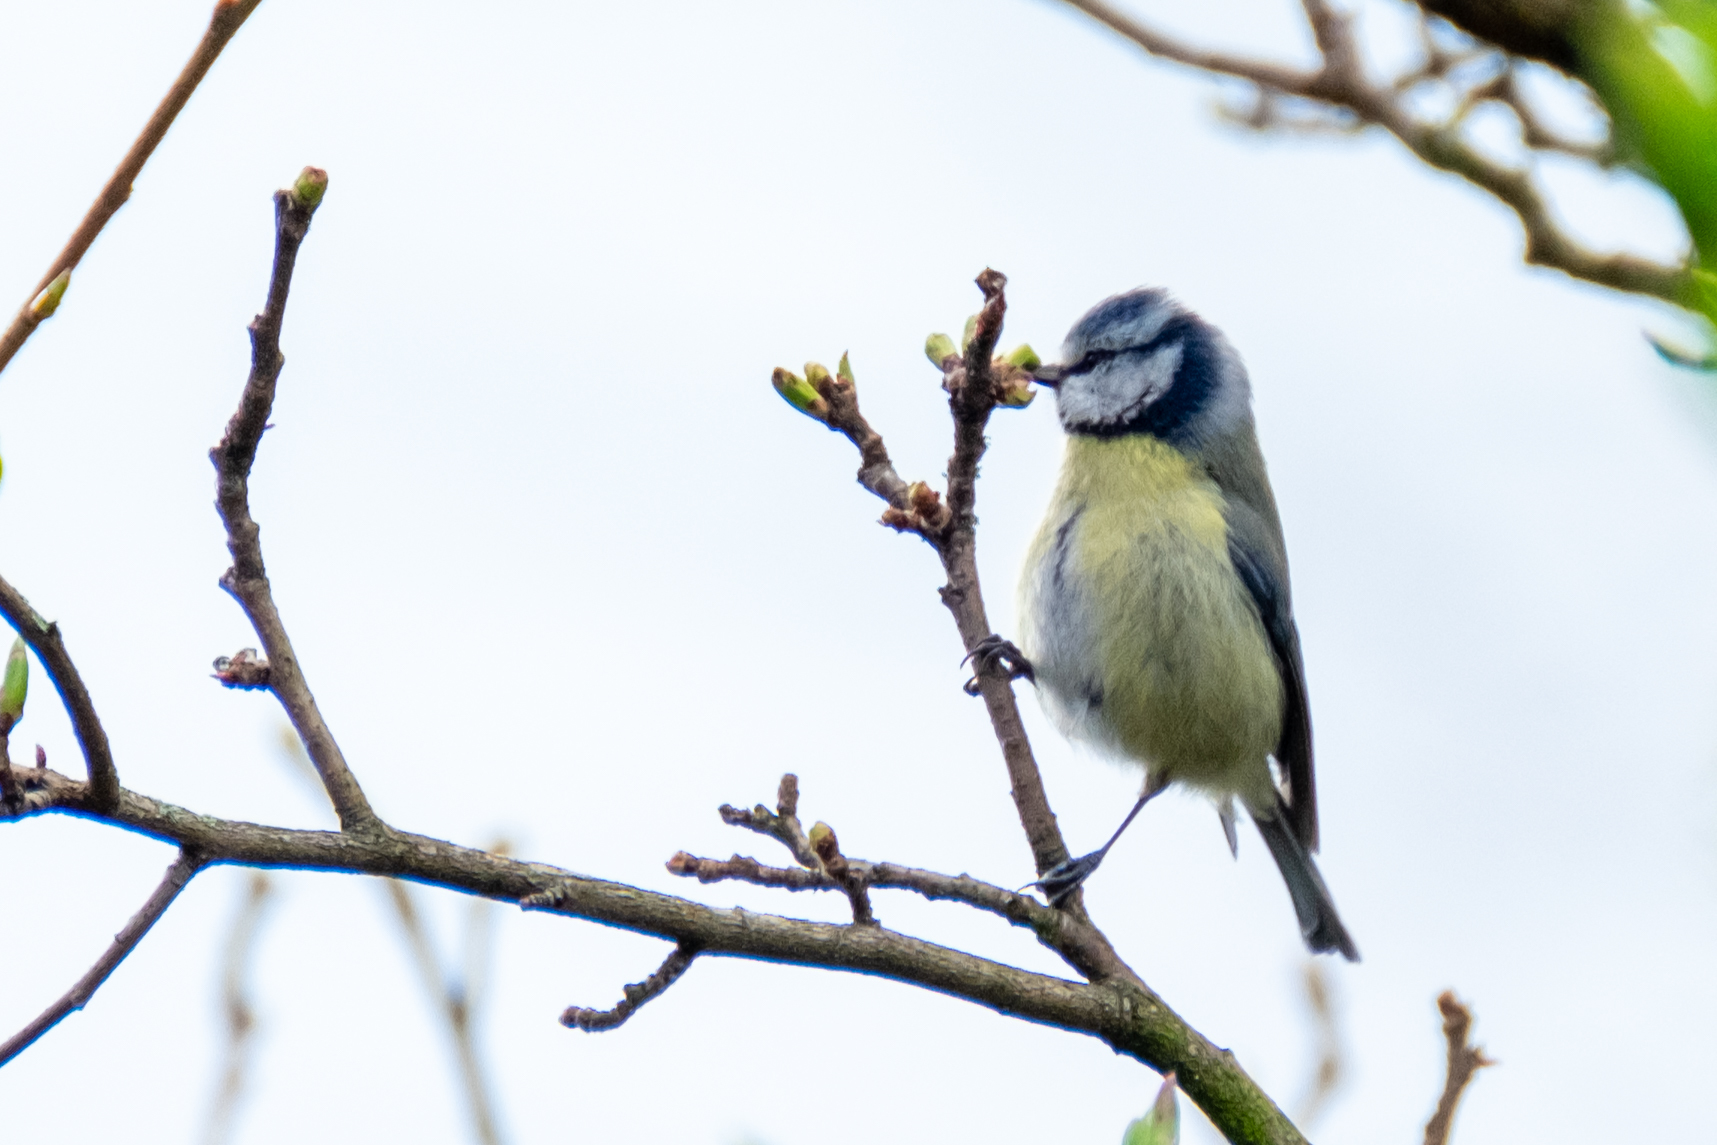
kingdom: Animalia
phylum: Chordata
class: Aves
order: Passeriformes
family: Paridae
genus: Cyanistes
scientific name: Cyanistes caeruleus
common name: Eurasian blue tit
